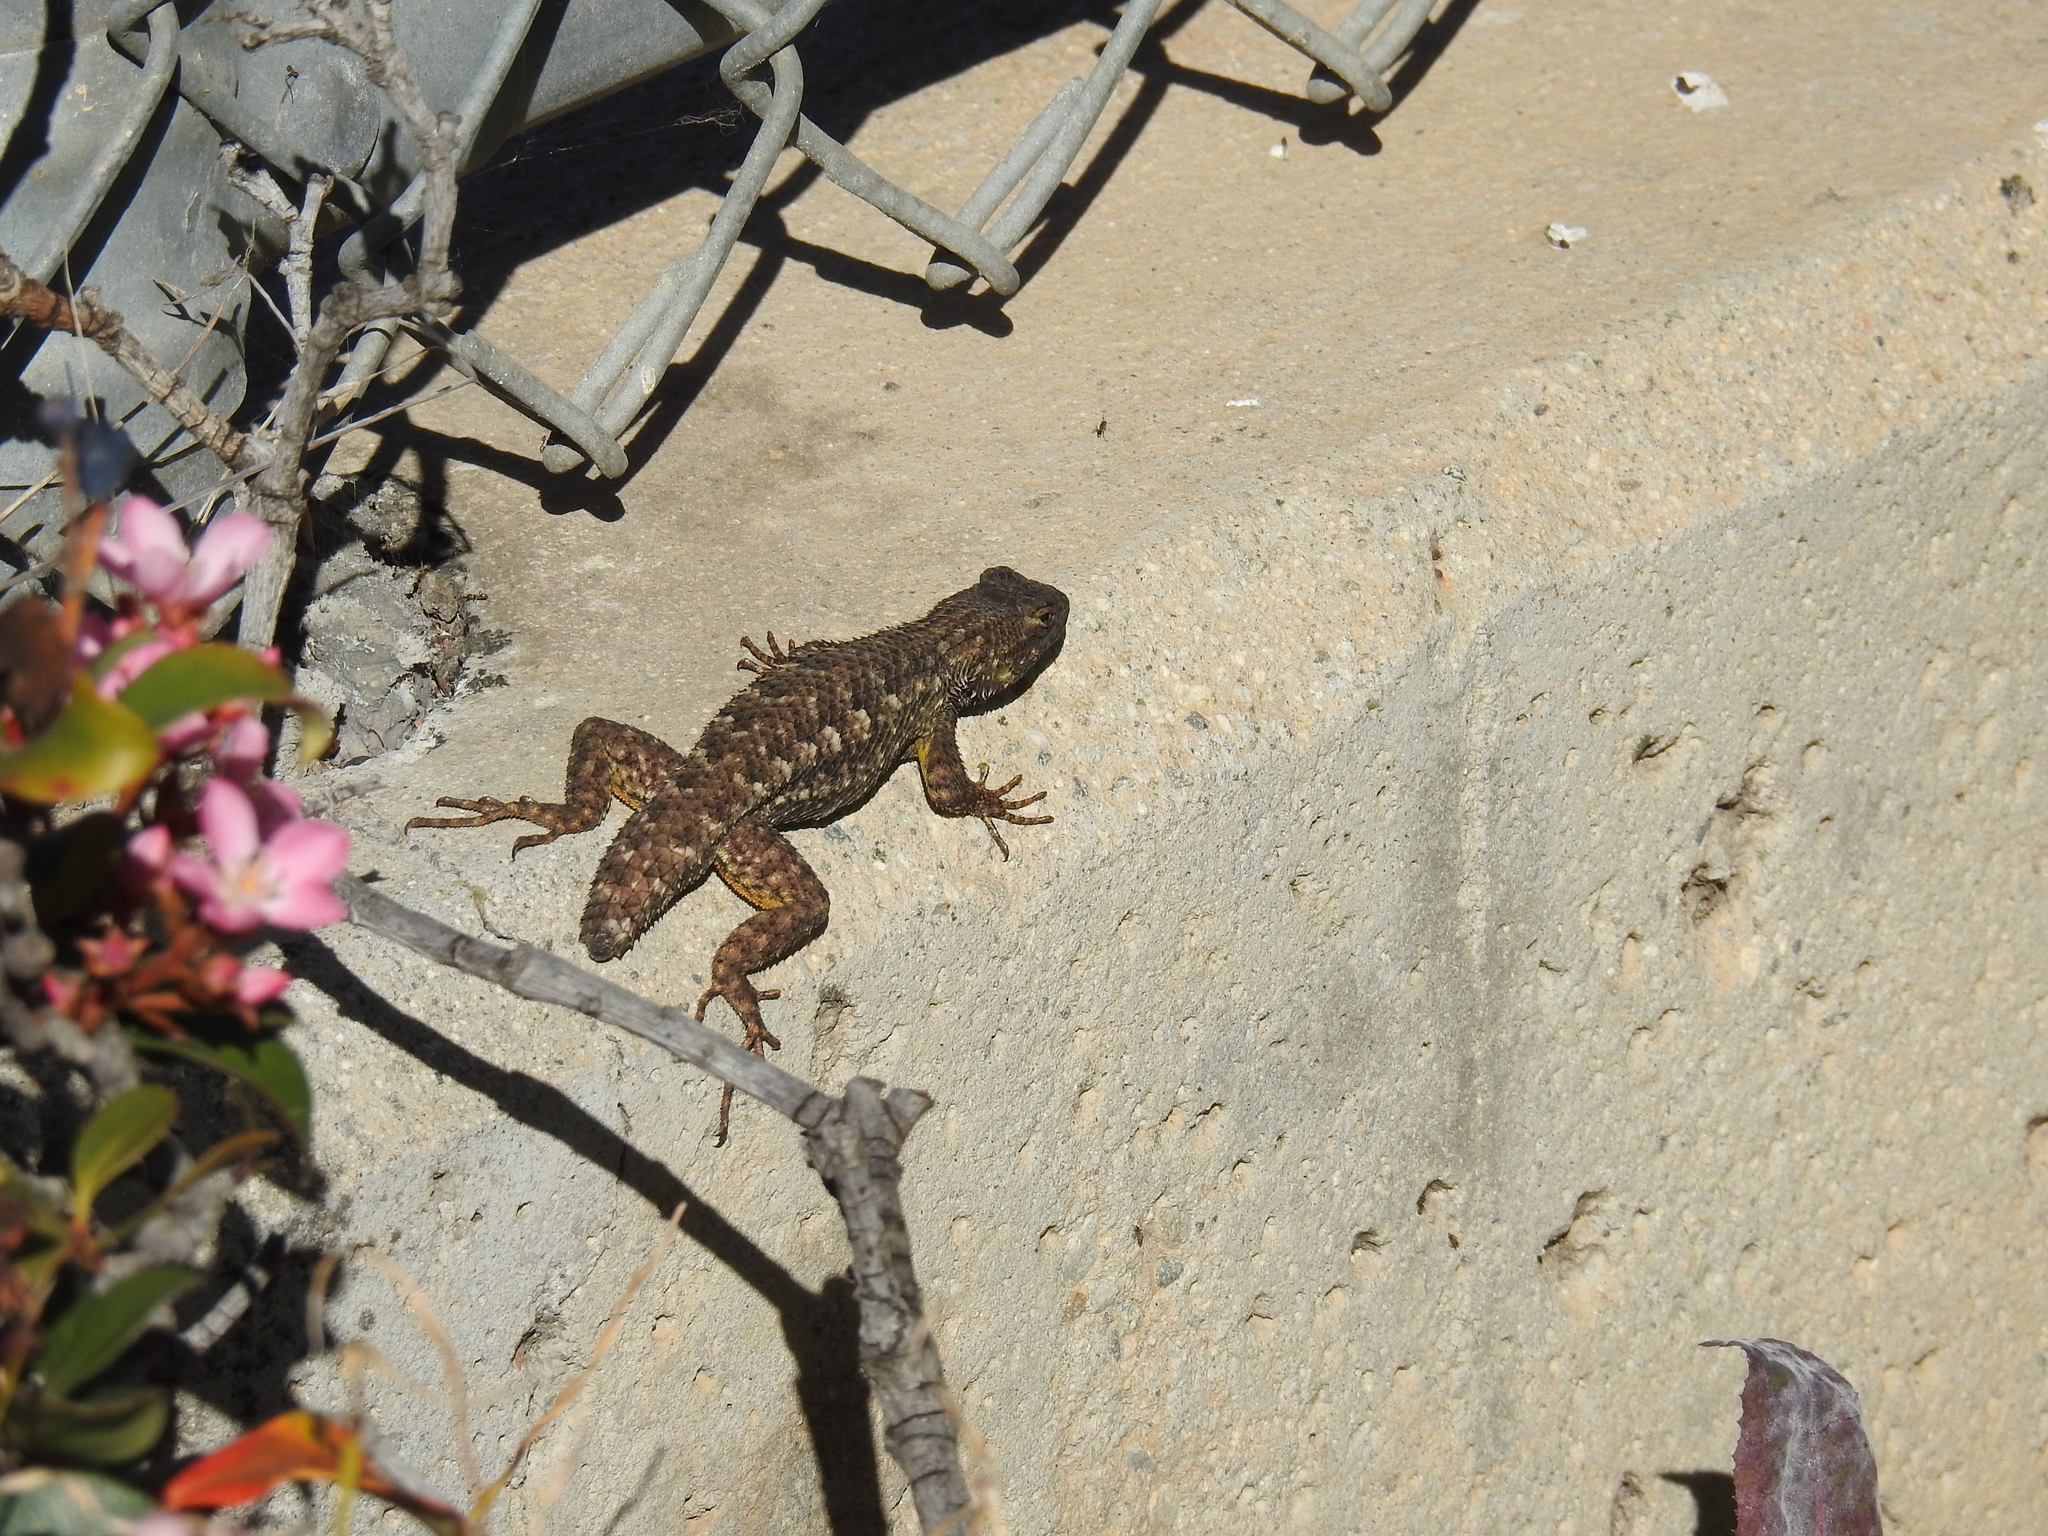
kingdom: Animalia
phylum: Chordata
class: Squamata
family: Phrynosomatidae
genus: Sceloporus
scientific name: Sceloporus occidentalis
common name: Western fence lizard
